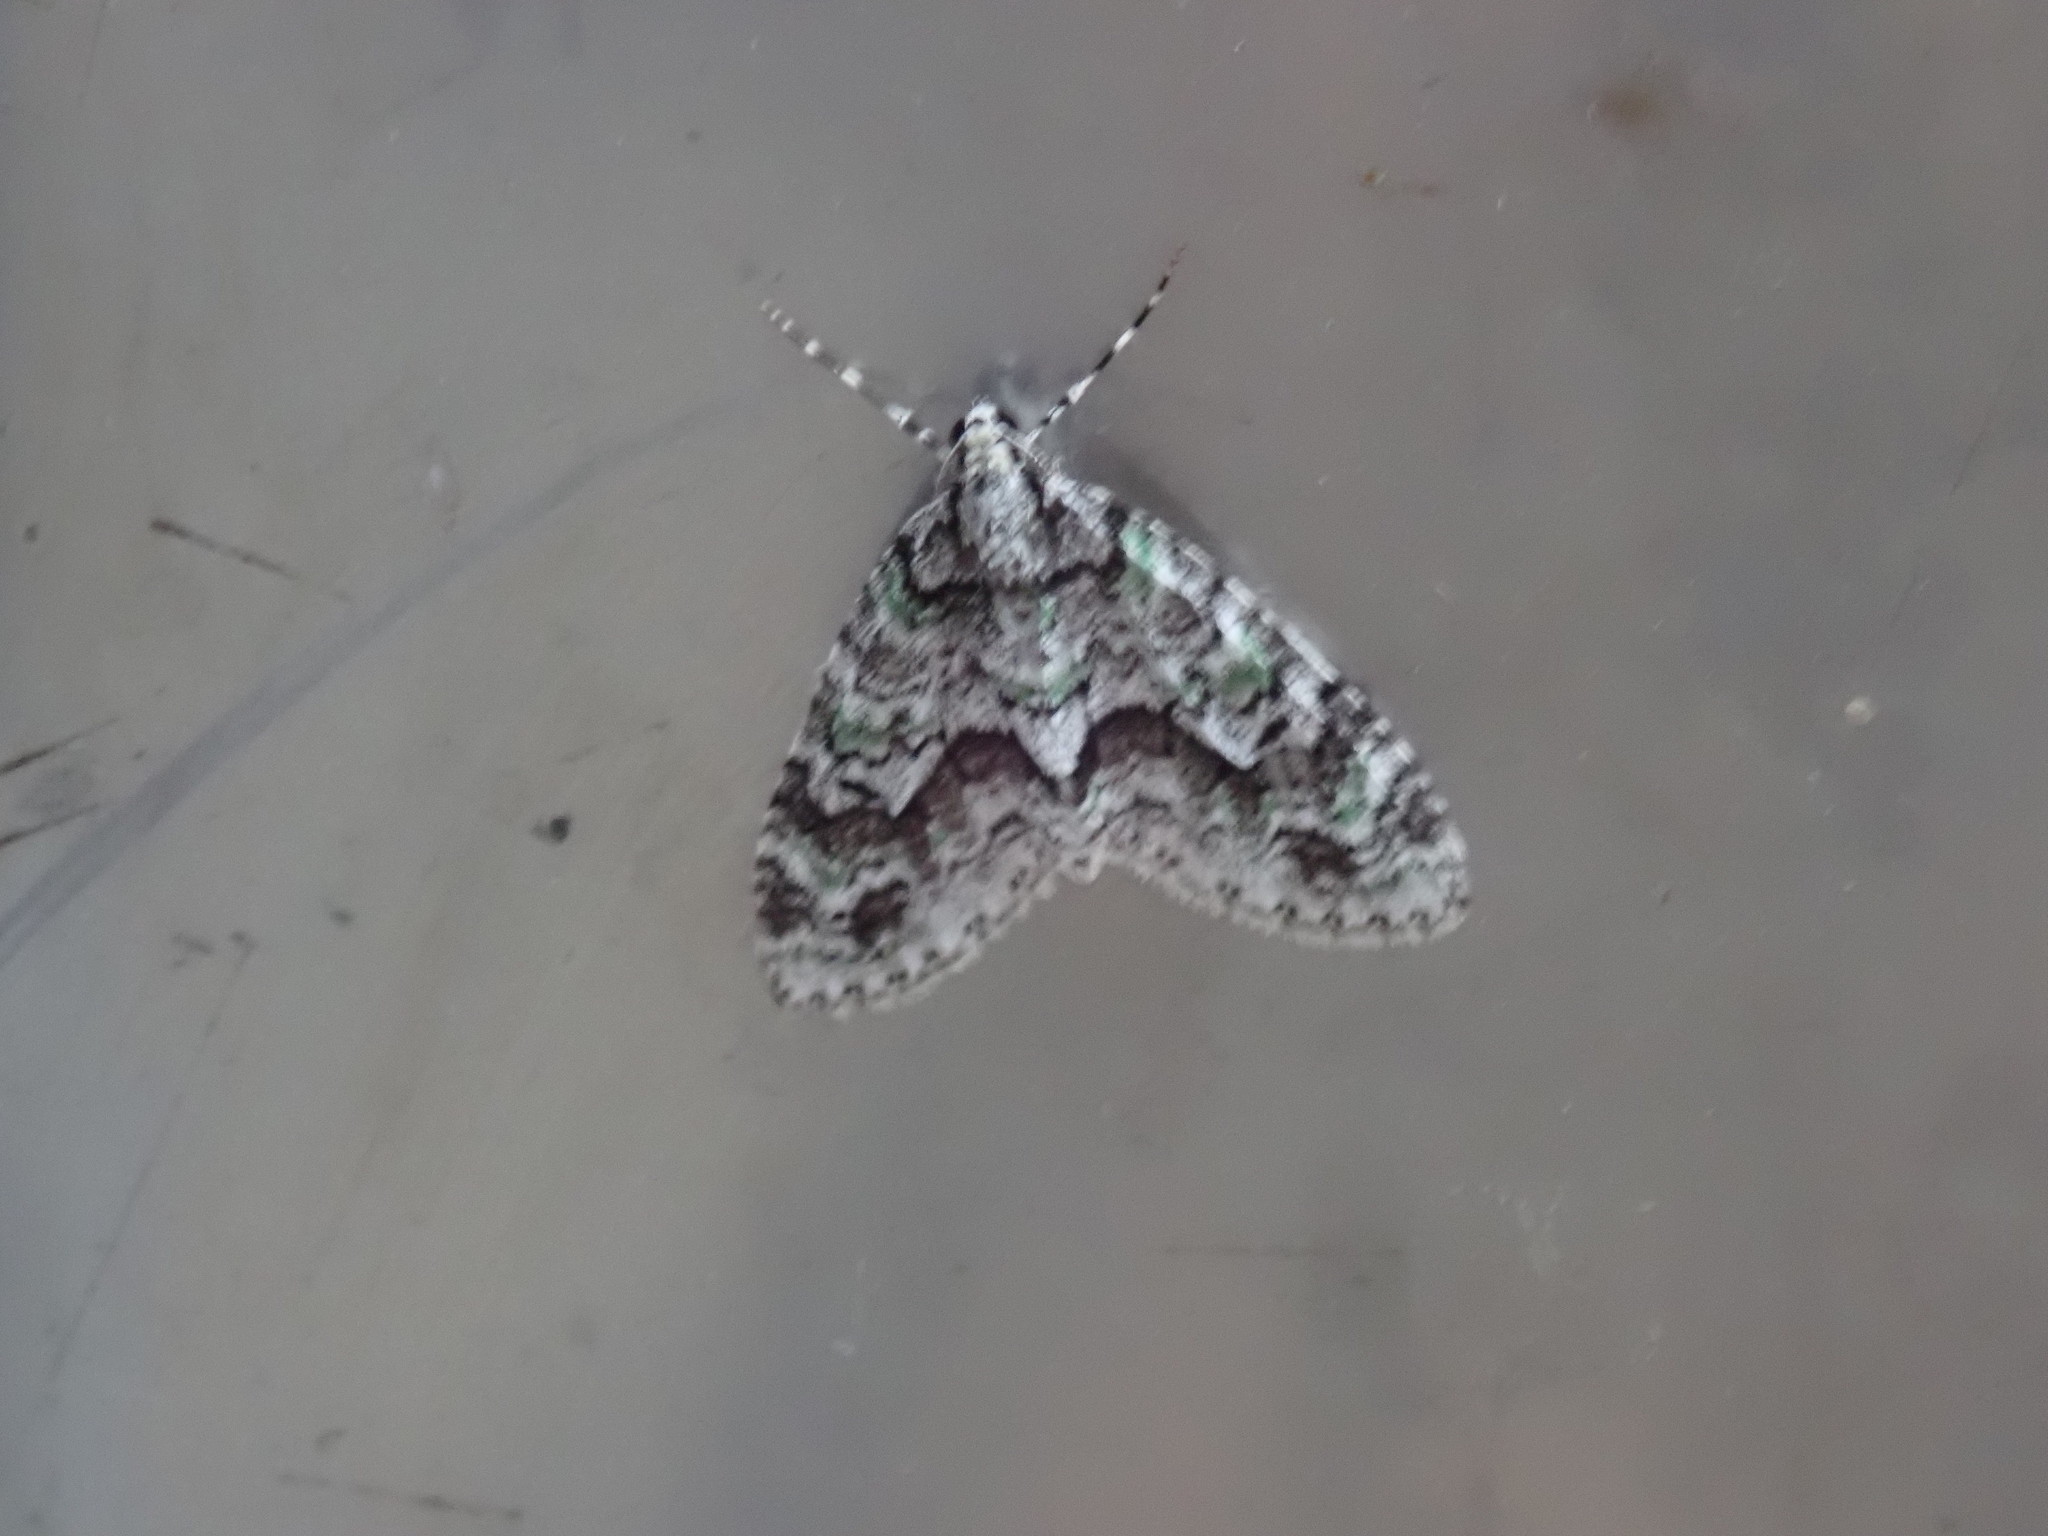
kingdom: Animalia
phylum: Arthropoda
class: Insecta
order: Lepidoptera
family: Geometridae
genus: Cladara
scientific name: Cladara limitaria
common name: Mottled gray carpet
